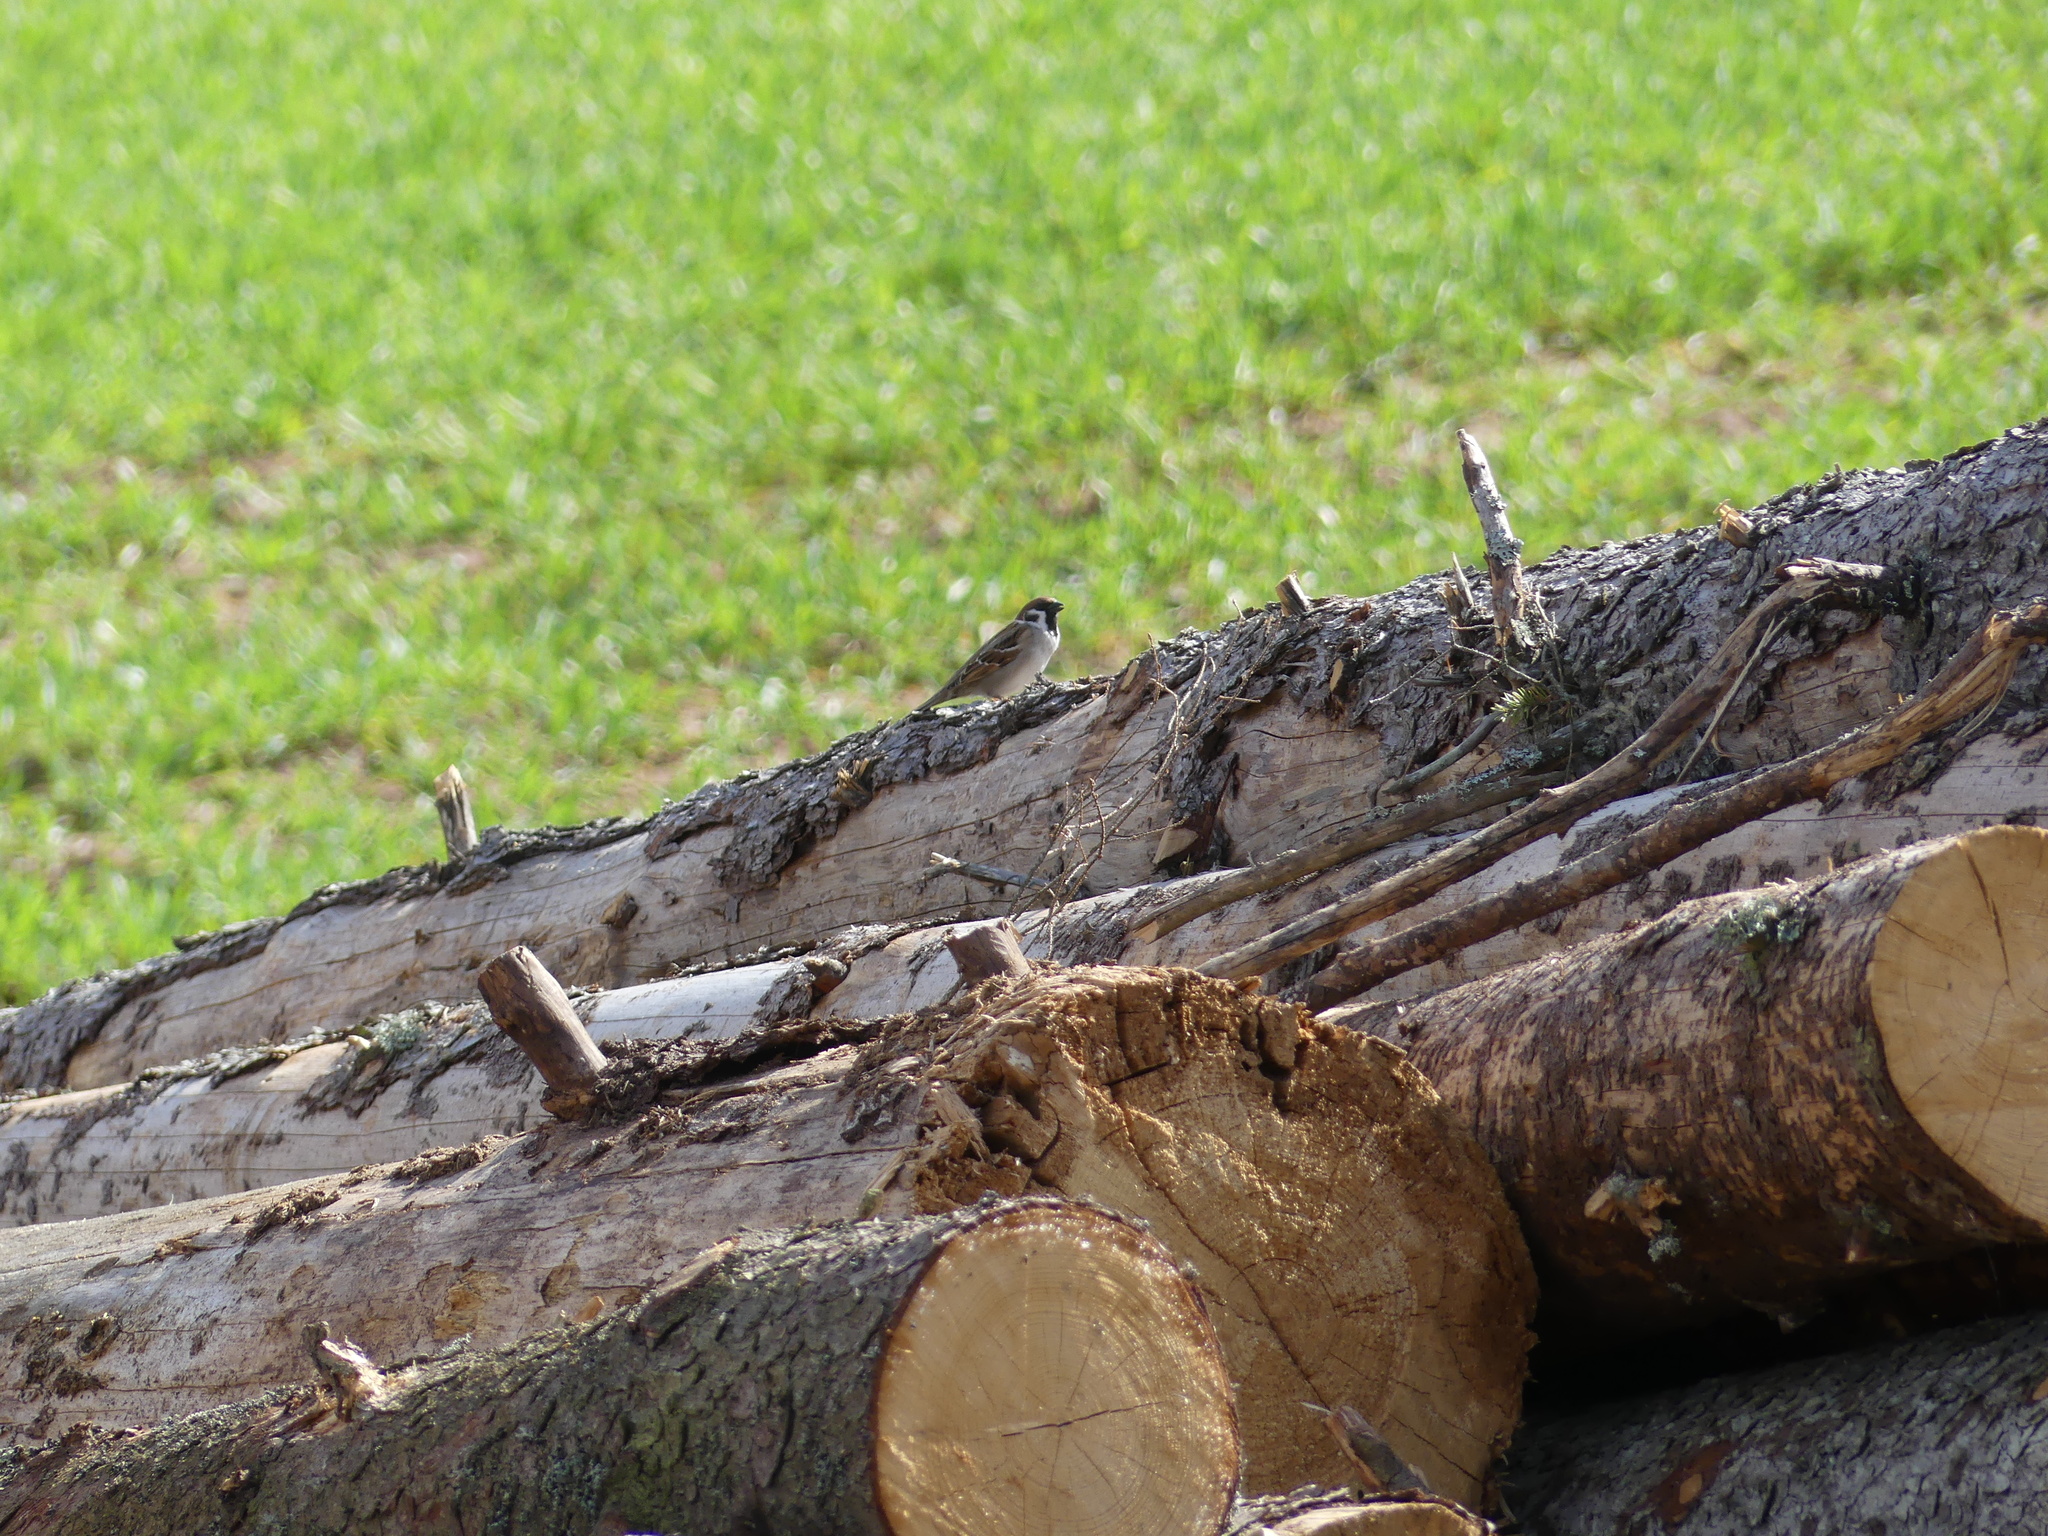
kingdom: Animalia
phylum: Chordata
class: Aves
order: Passeriformes
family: Passeridae
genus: Passer
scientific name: Passer montanus
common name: Eurasian tree sparrow
